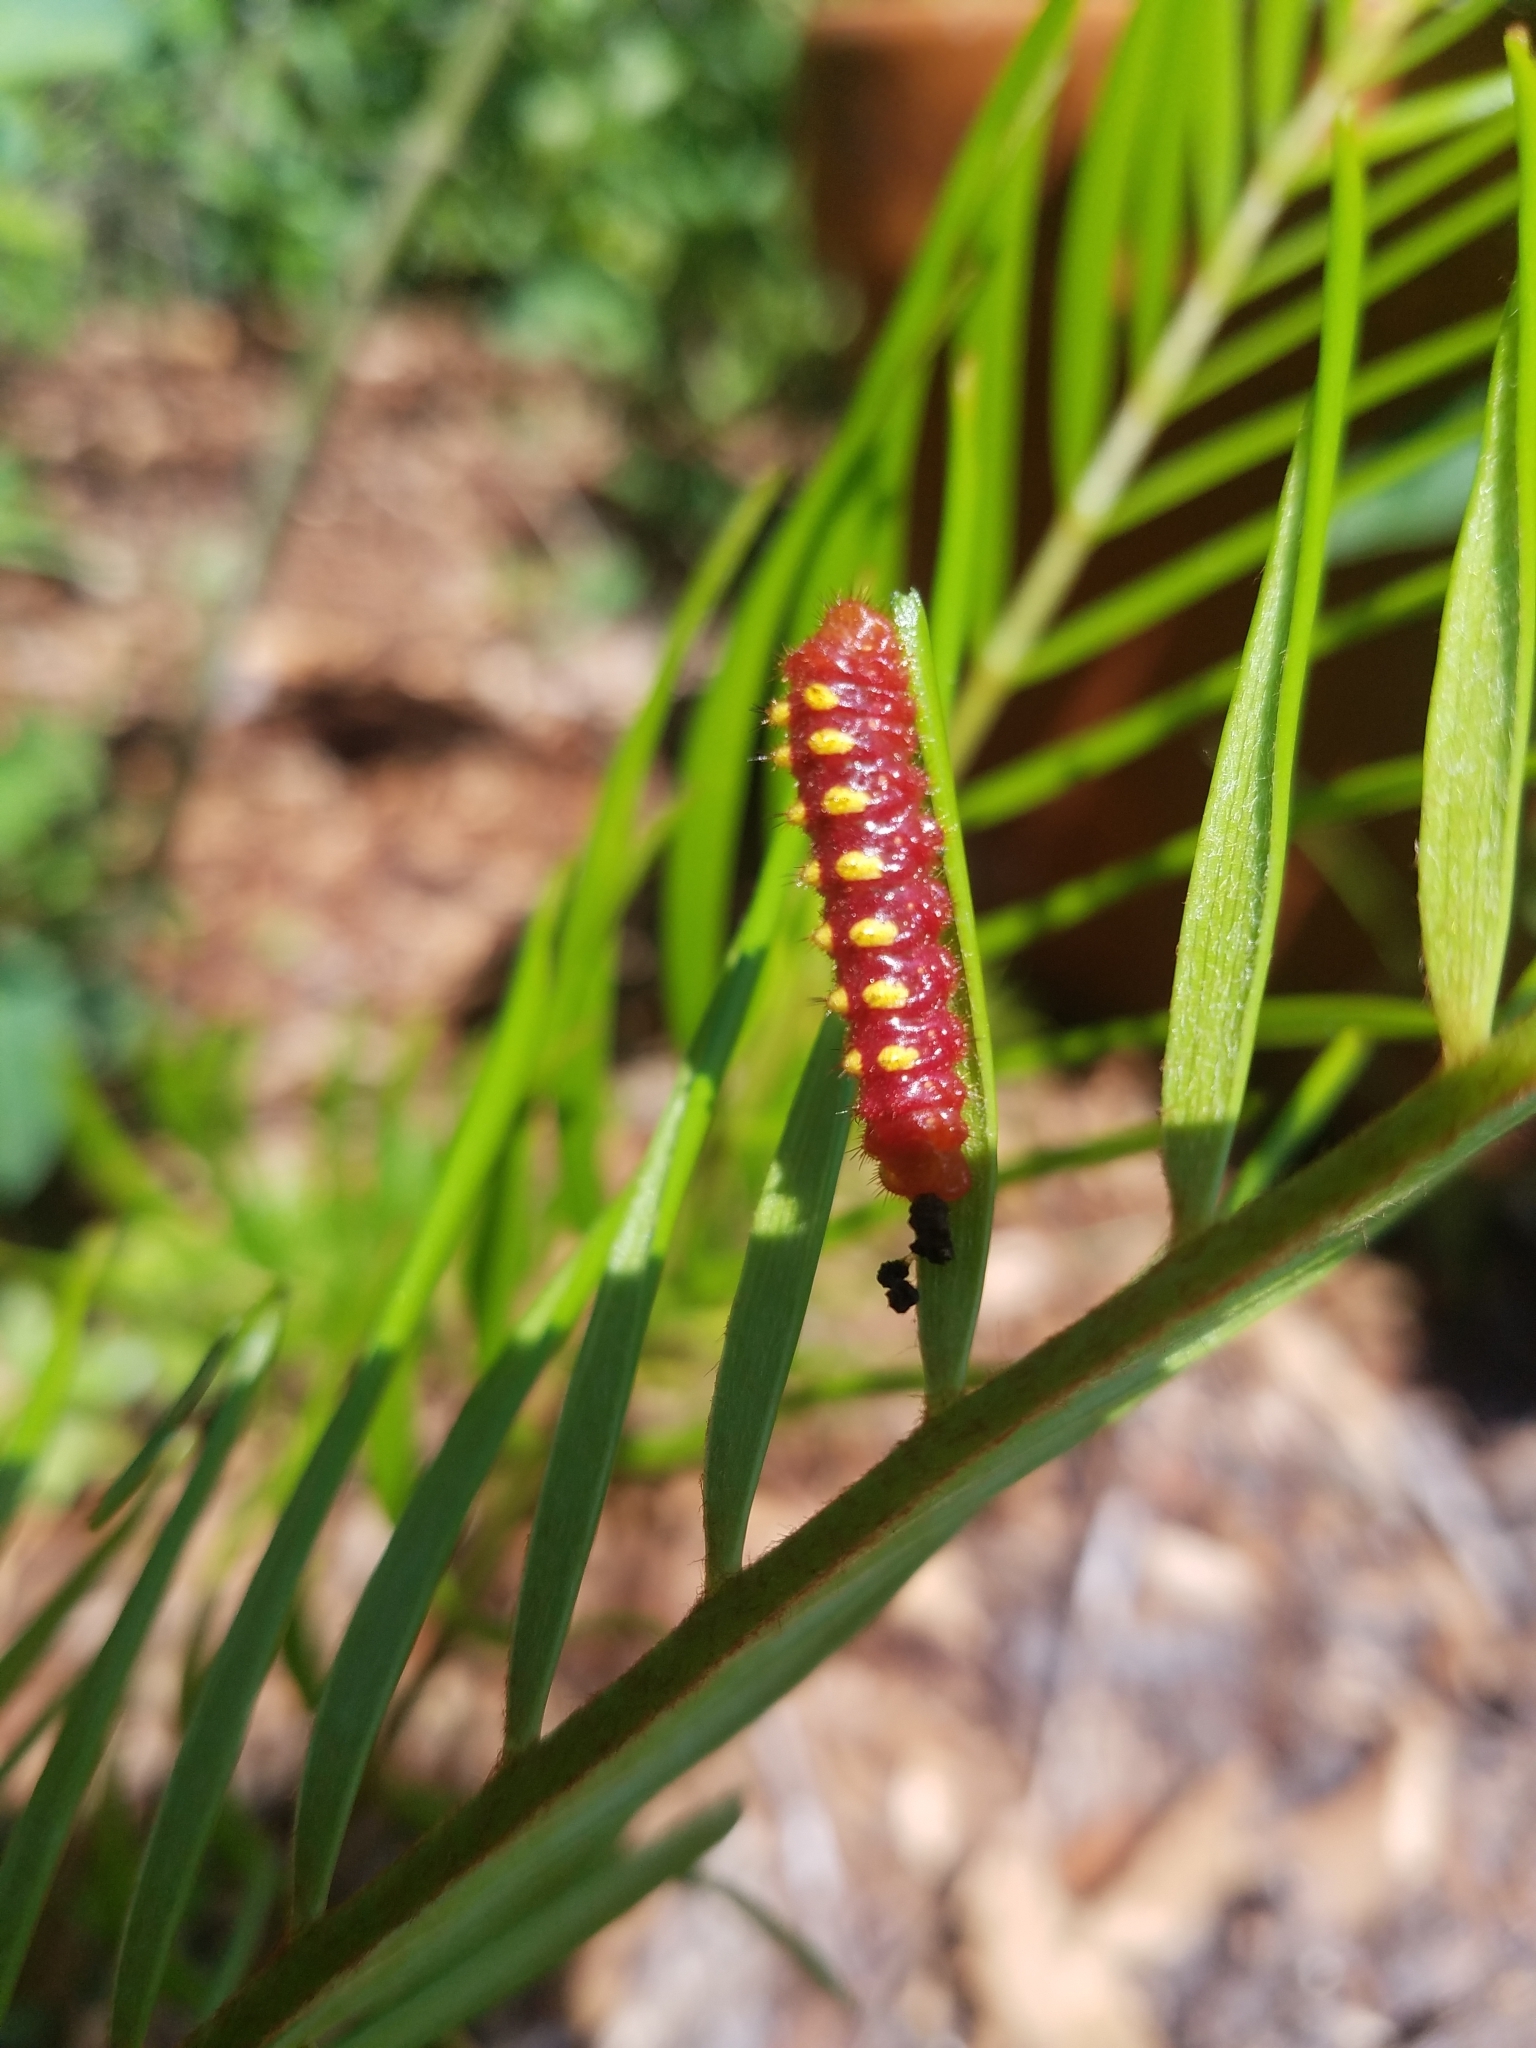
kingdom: Animalia
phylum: Arthropoda
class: Insecta
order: Lepidoptera
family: Lycaenidae
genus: Eumaeus
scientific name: Eumaeus atala
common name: Atala
